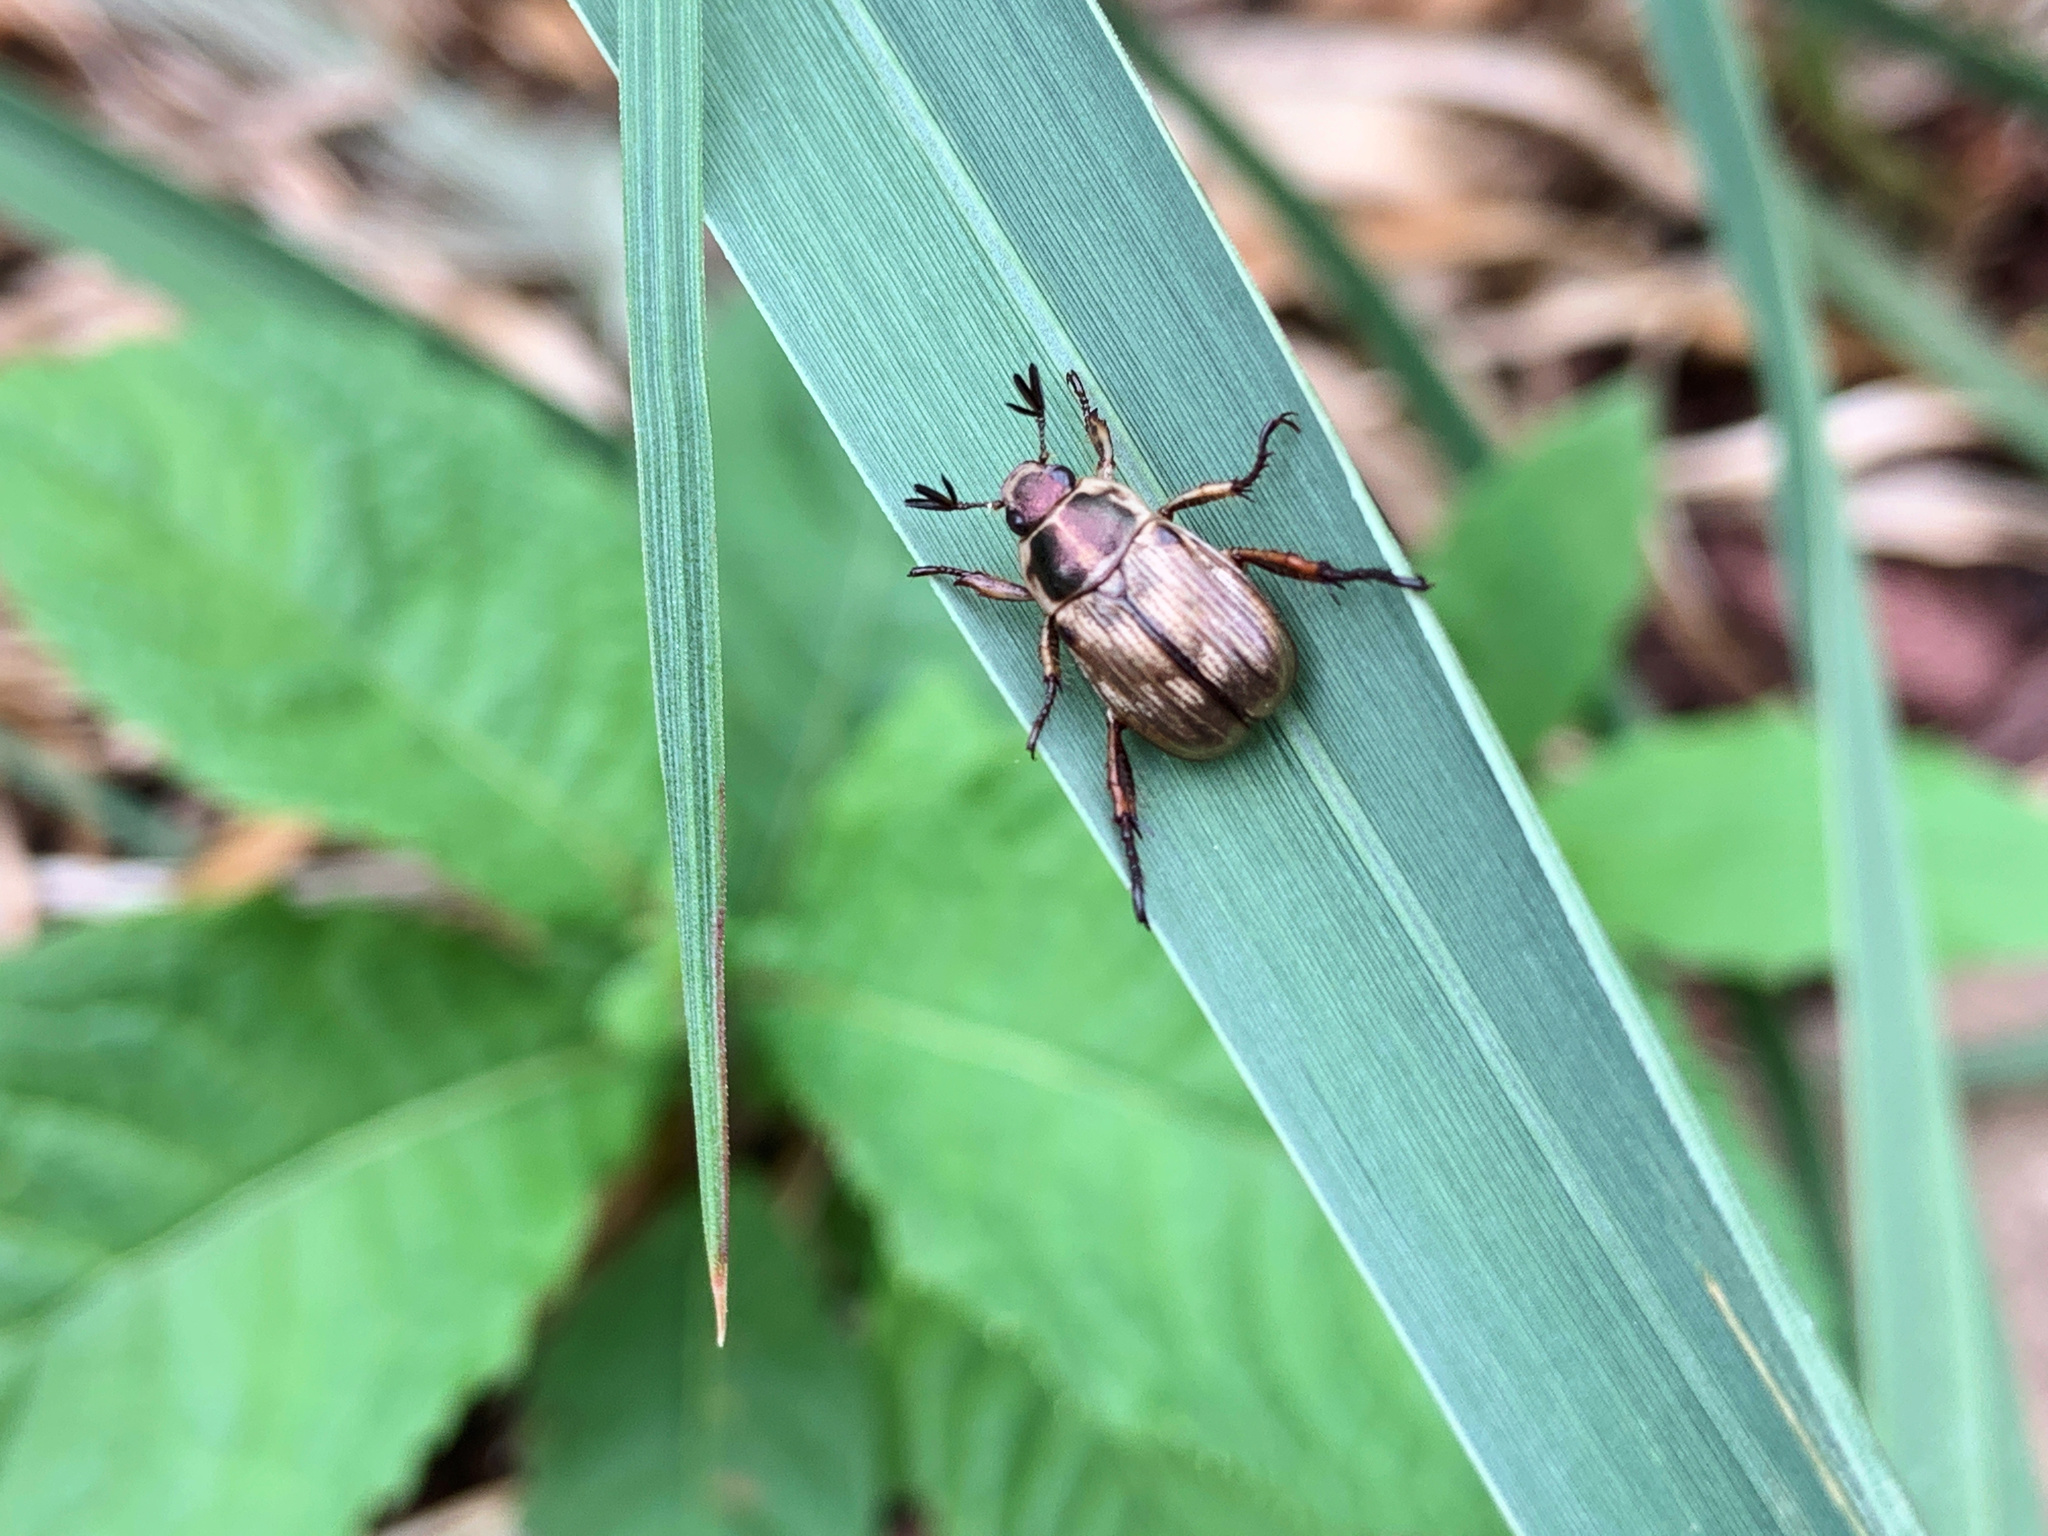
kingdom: Animalia
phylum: Arthropoda
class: Insecta
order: Coleoptera
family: Scarabaeidae
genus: Exomala
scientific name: Exomala orientalis
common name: Oriental beetle
